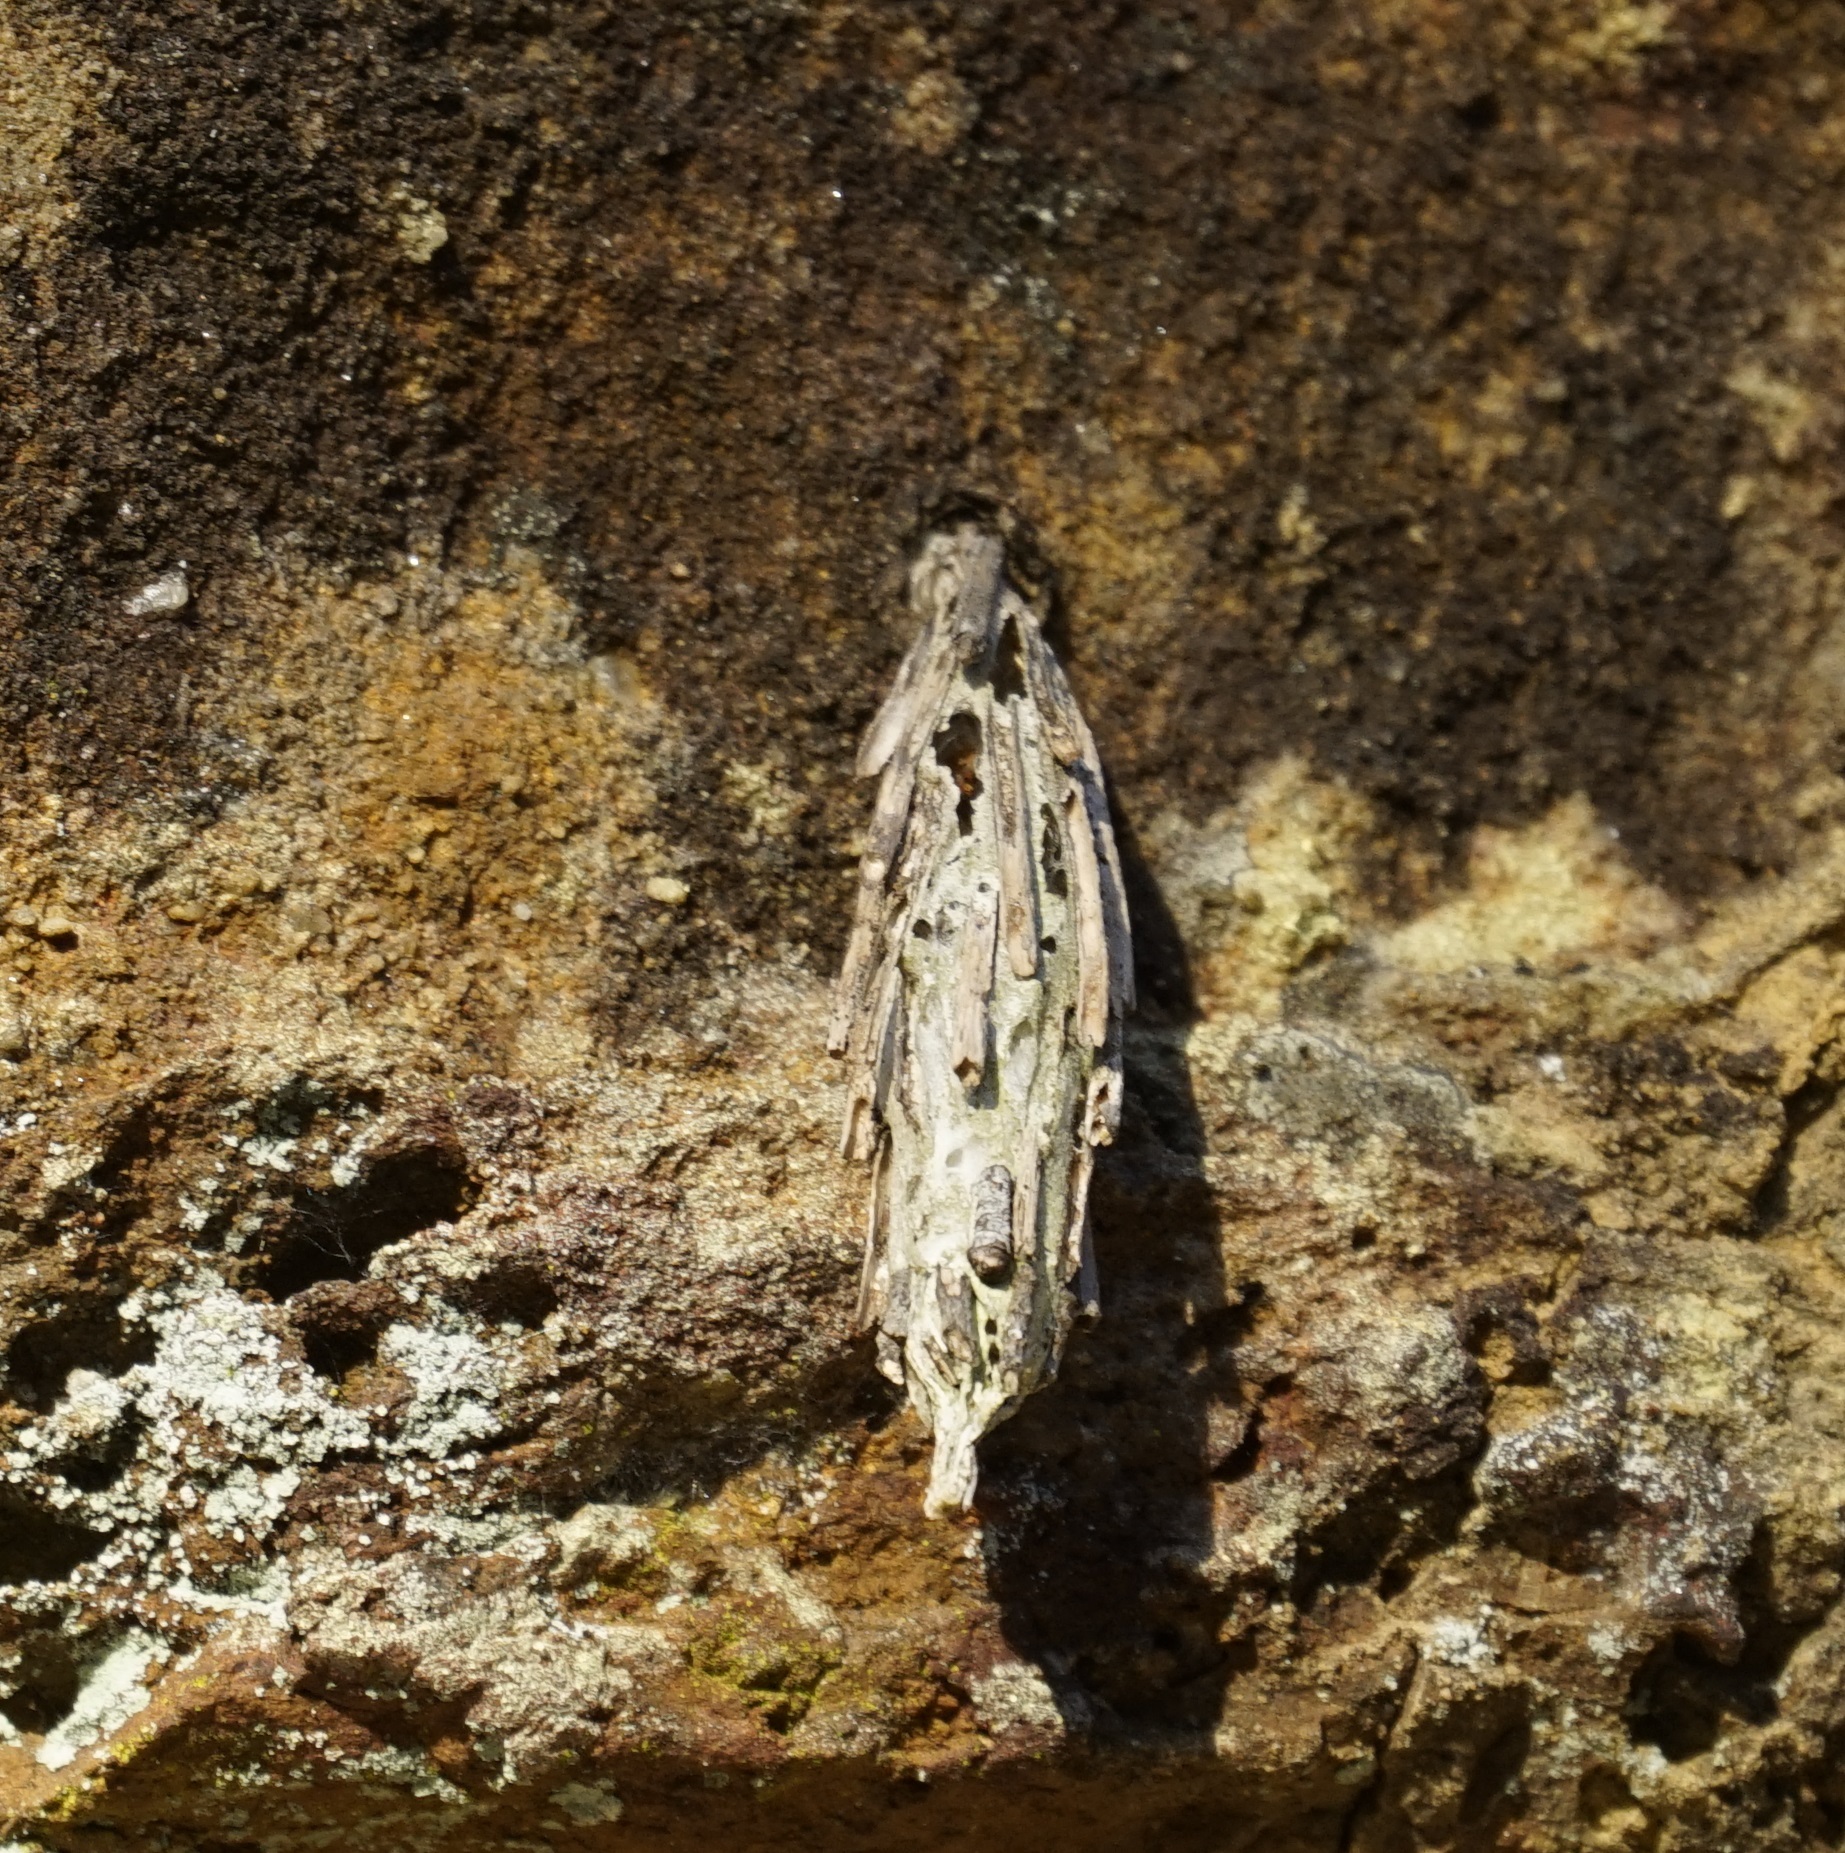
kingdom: Animalia
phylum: Arthropoda
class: Insecta
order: Lepidoptera
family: Psychidae
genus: Metura
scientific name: Metura elongatus
